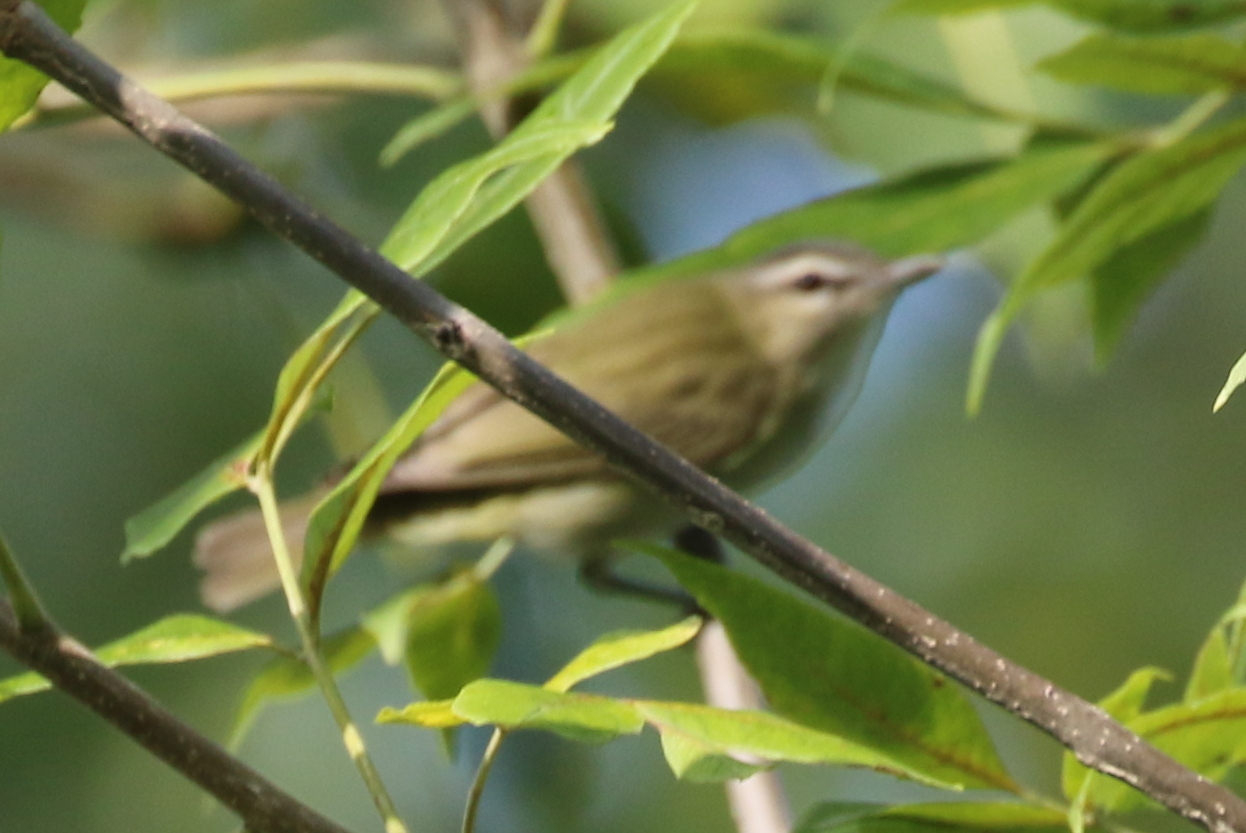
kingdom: Animalia
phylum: Chordata
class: Aves
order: Passeriformes
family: Vireonidae
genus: Vireo
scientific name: Vireo olivaceus
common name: Red-eyed vireo
